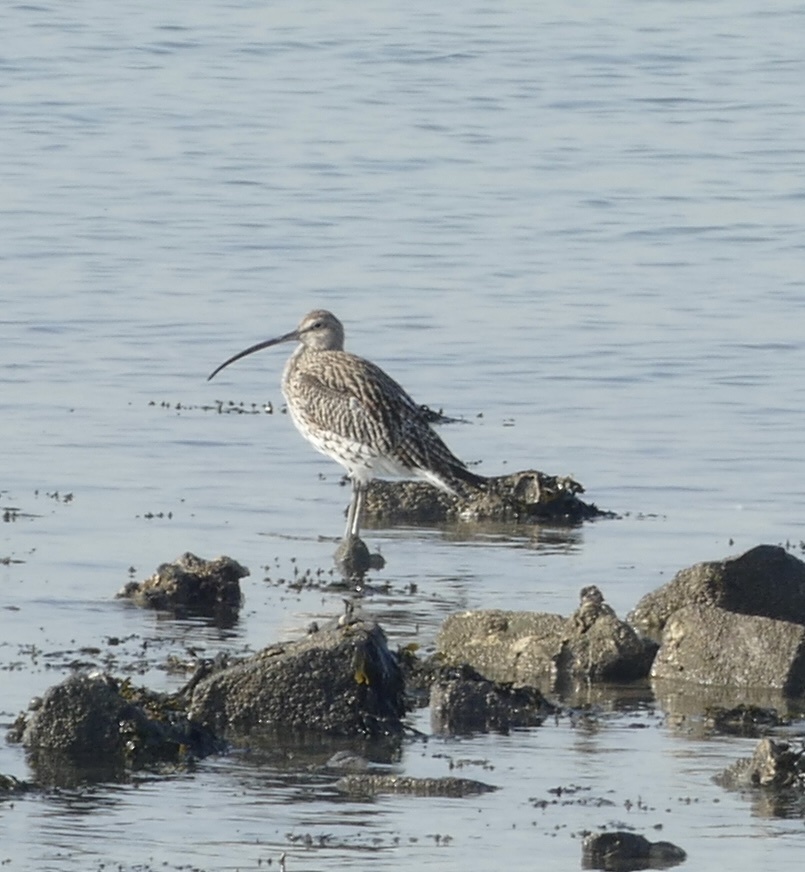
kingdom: Animalia
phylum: Chordata
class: Aves
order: Charadriiformes
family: Scolopacidae
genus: Numenius
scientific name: Numenius arquata
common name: Eurasian curlew
